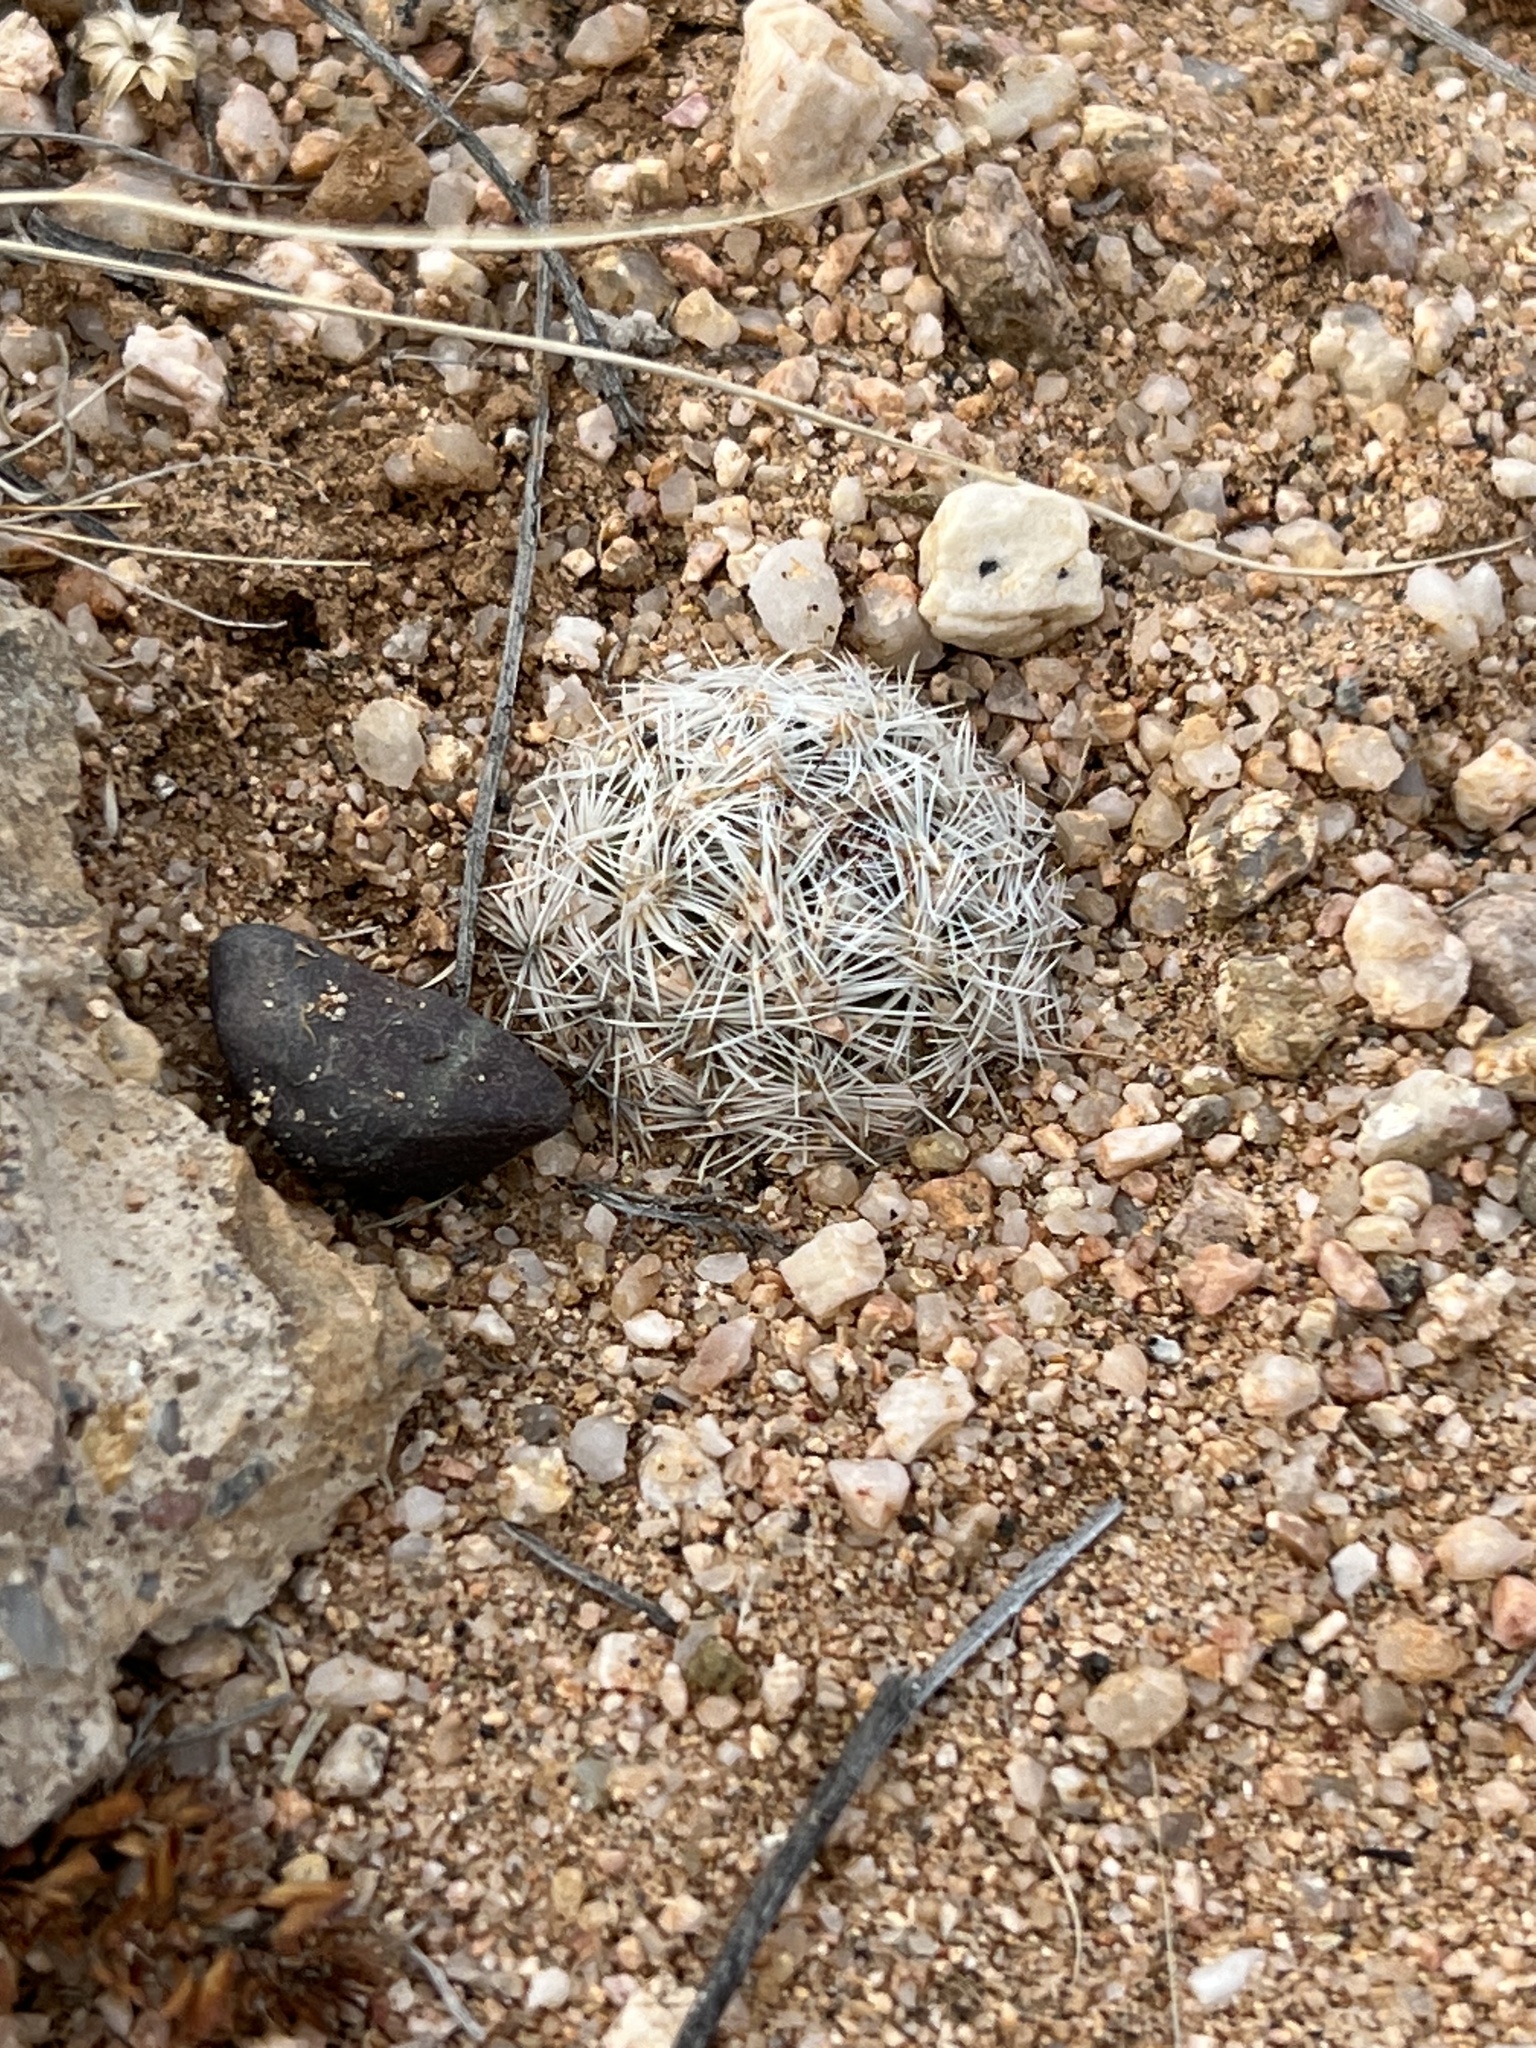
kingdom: Plantae
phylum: Tracheophyta
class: Magnoliopsida
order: Caryophyllales
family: Cactaceae
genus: Pelecyphora
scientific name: Pelecyphora vivipara
